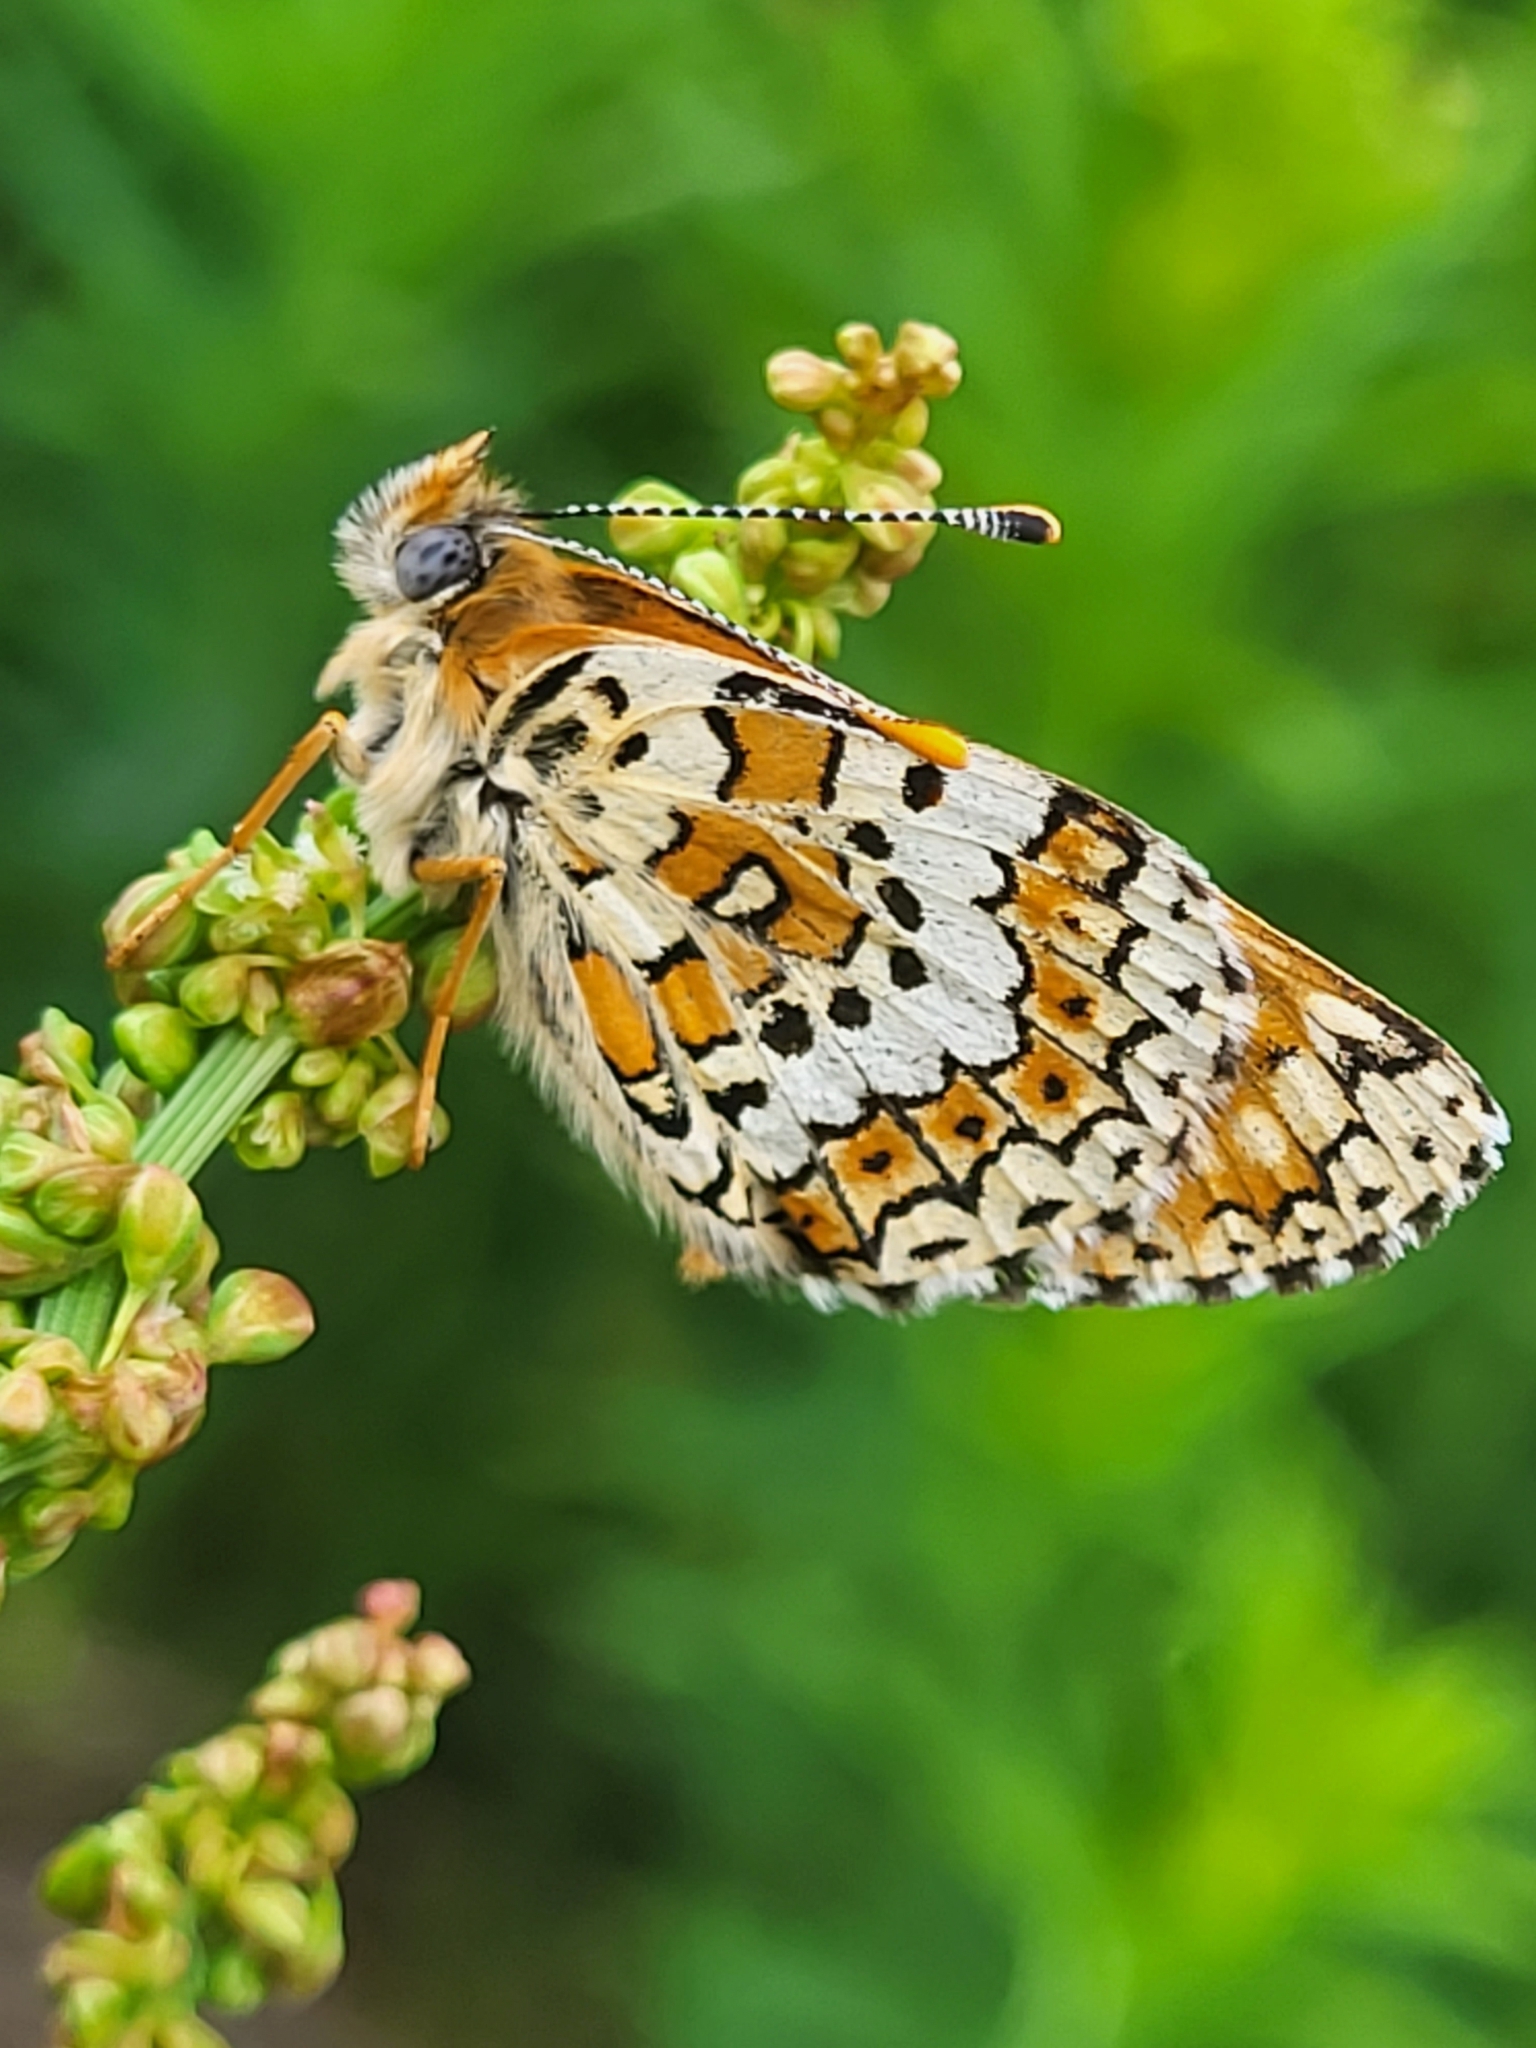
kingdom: Animalia
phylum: Arthropoda
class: Insecta
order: Lepidoptera
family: Nymphalidae
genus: Melitaea
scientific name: Melitaea cinxia
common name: Glanville fritillary
